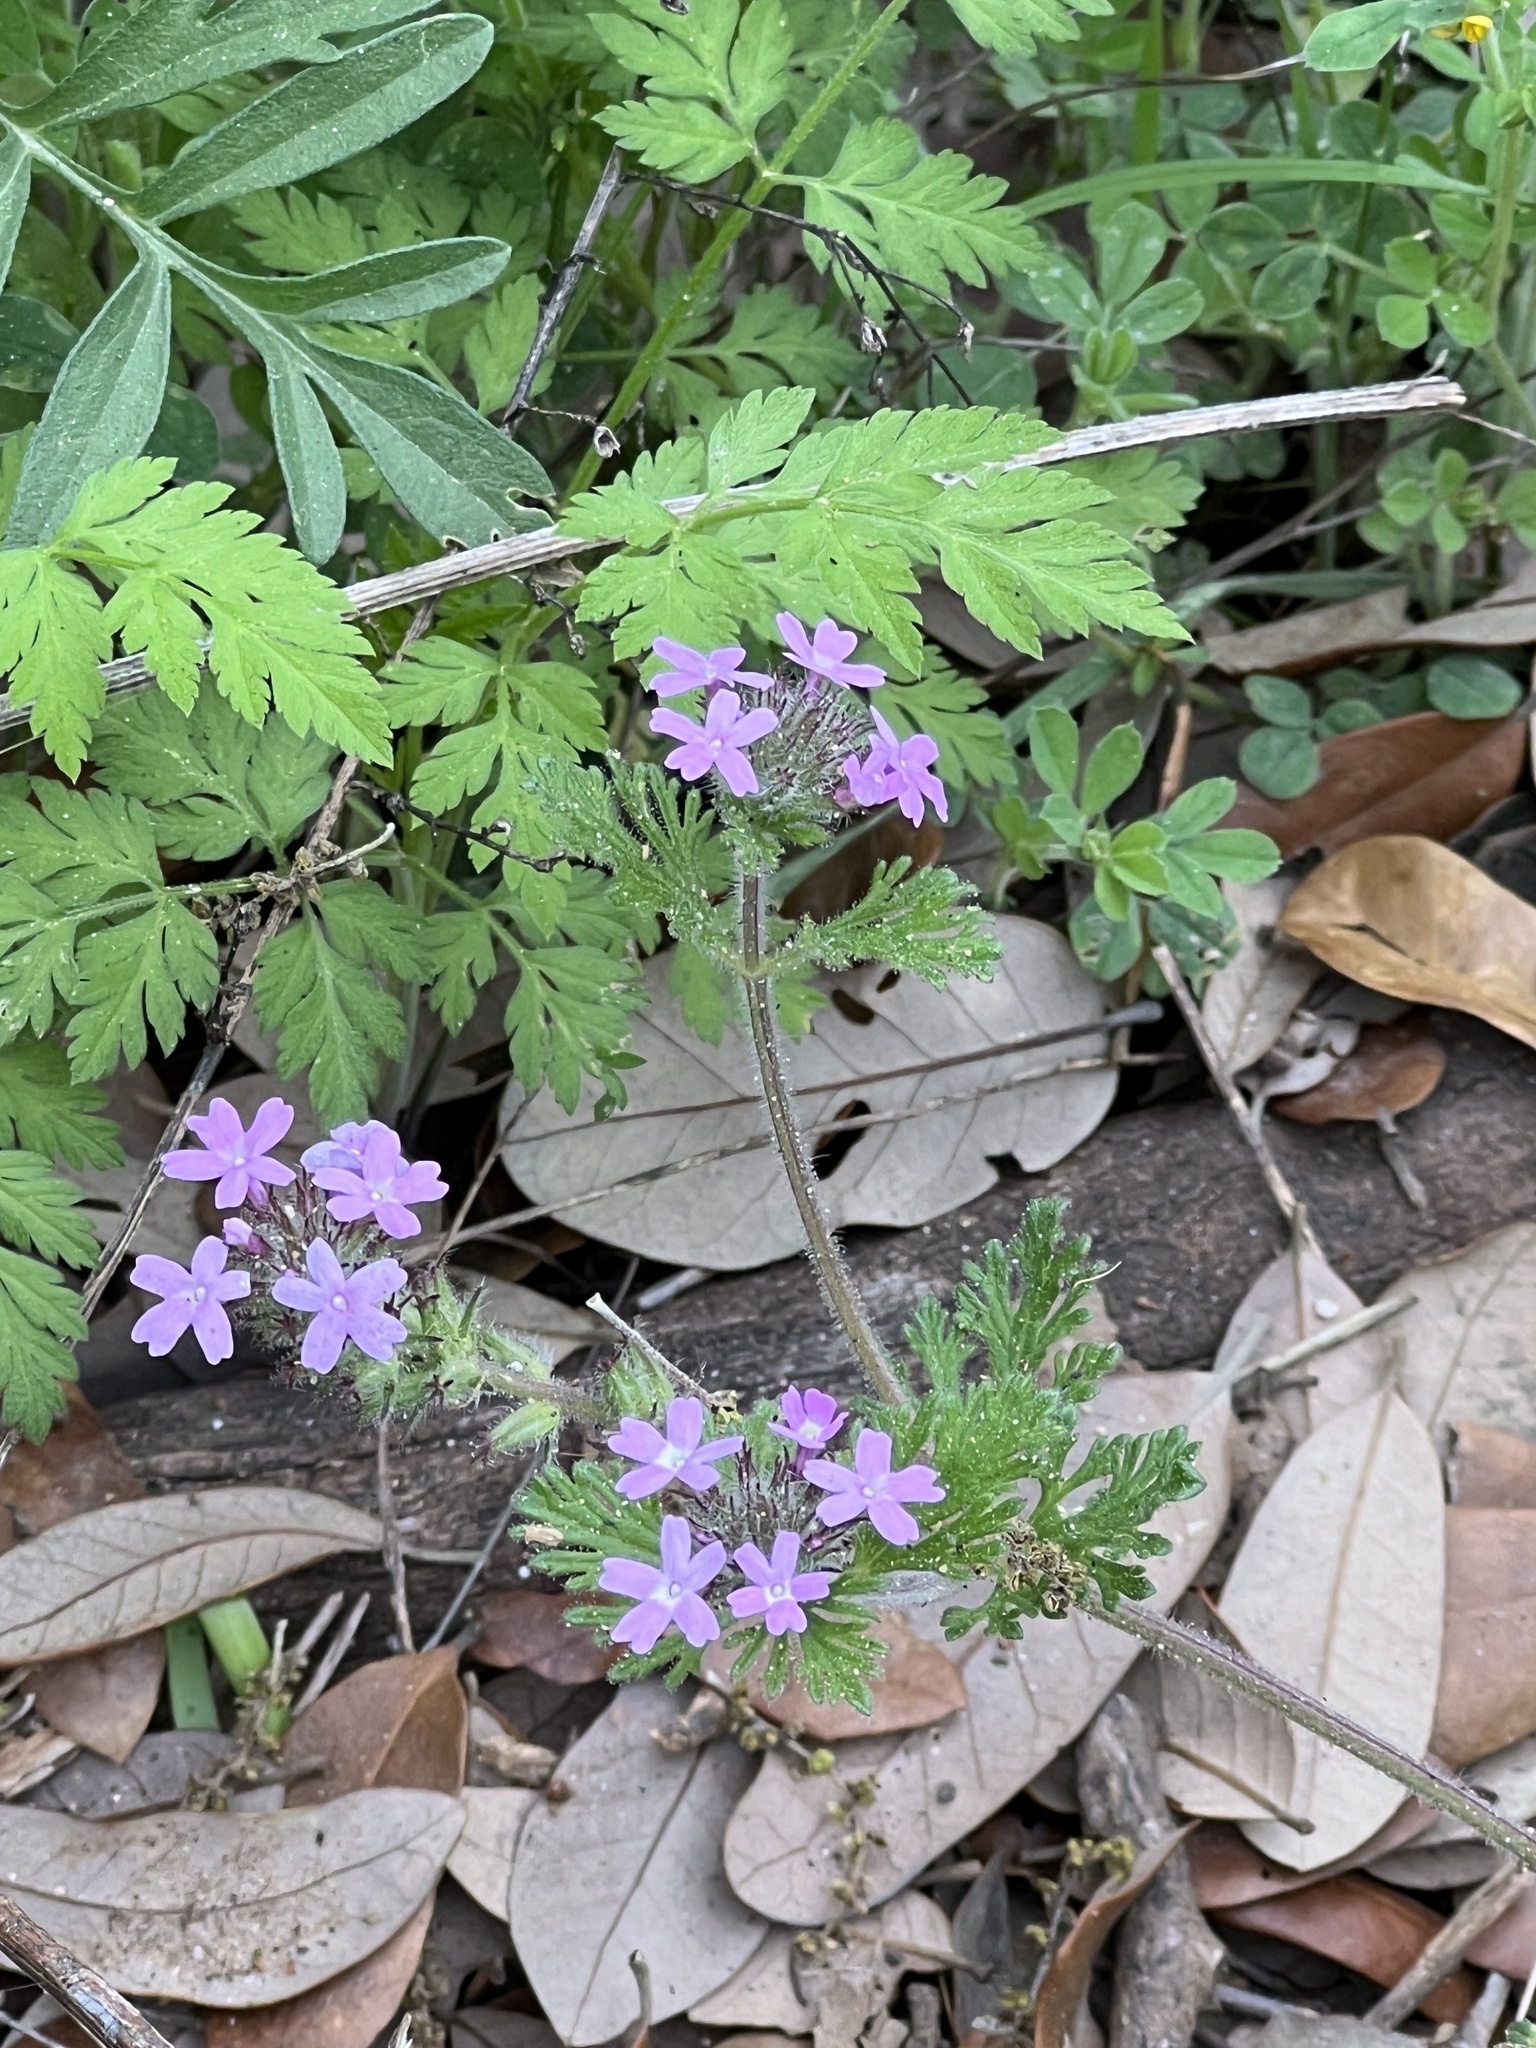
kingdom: Plantae
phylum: Tracheophyta
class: Magnoliopsida
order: Lamiales
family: Verbenaceae
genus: Verbena
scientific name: Verbena bipinnatifida
